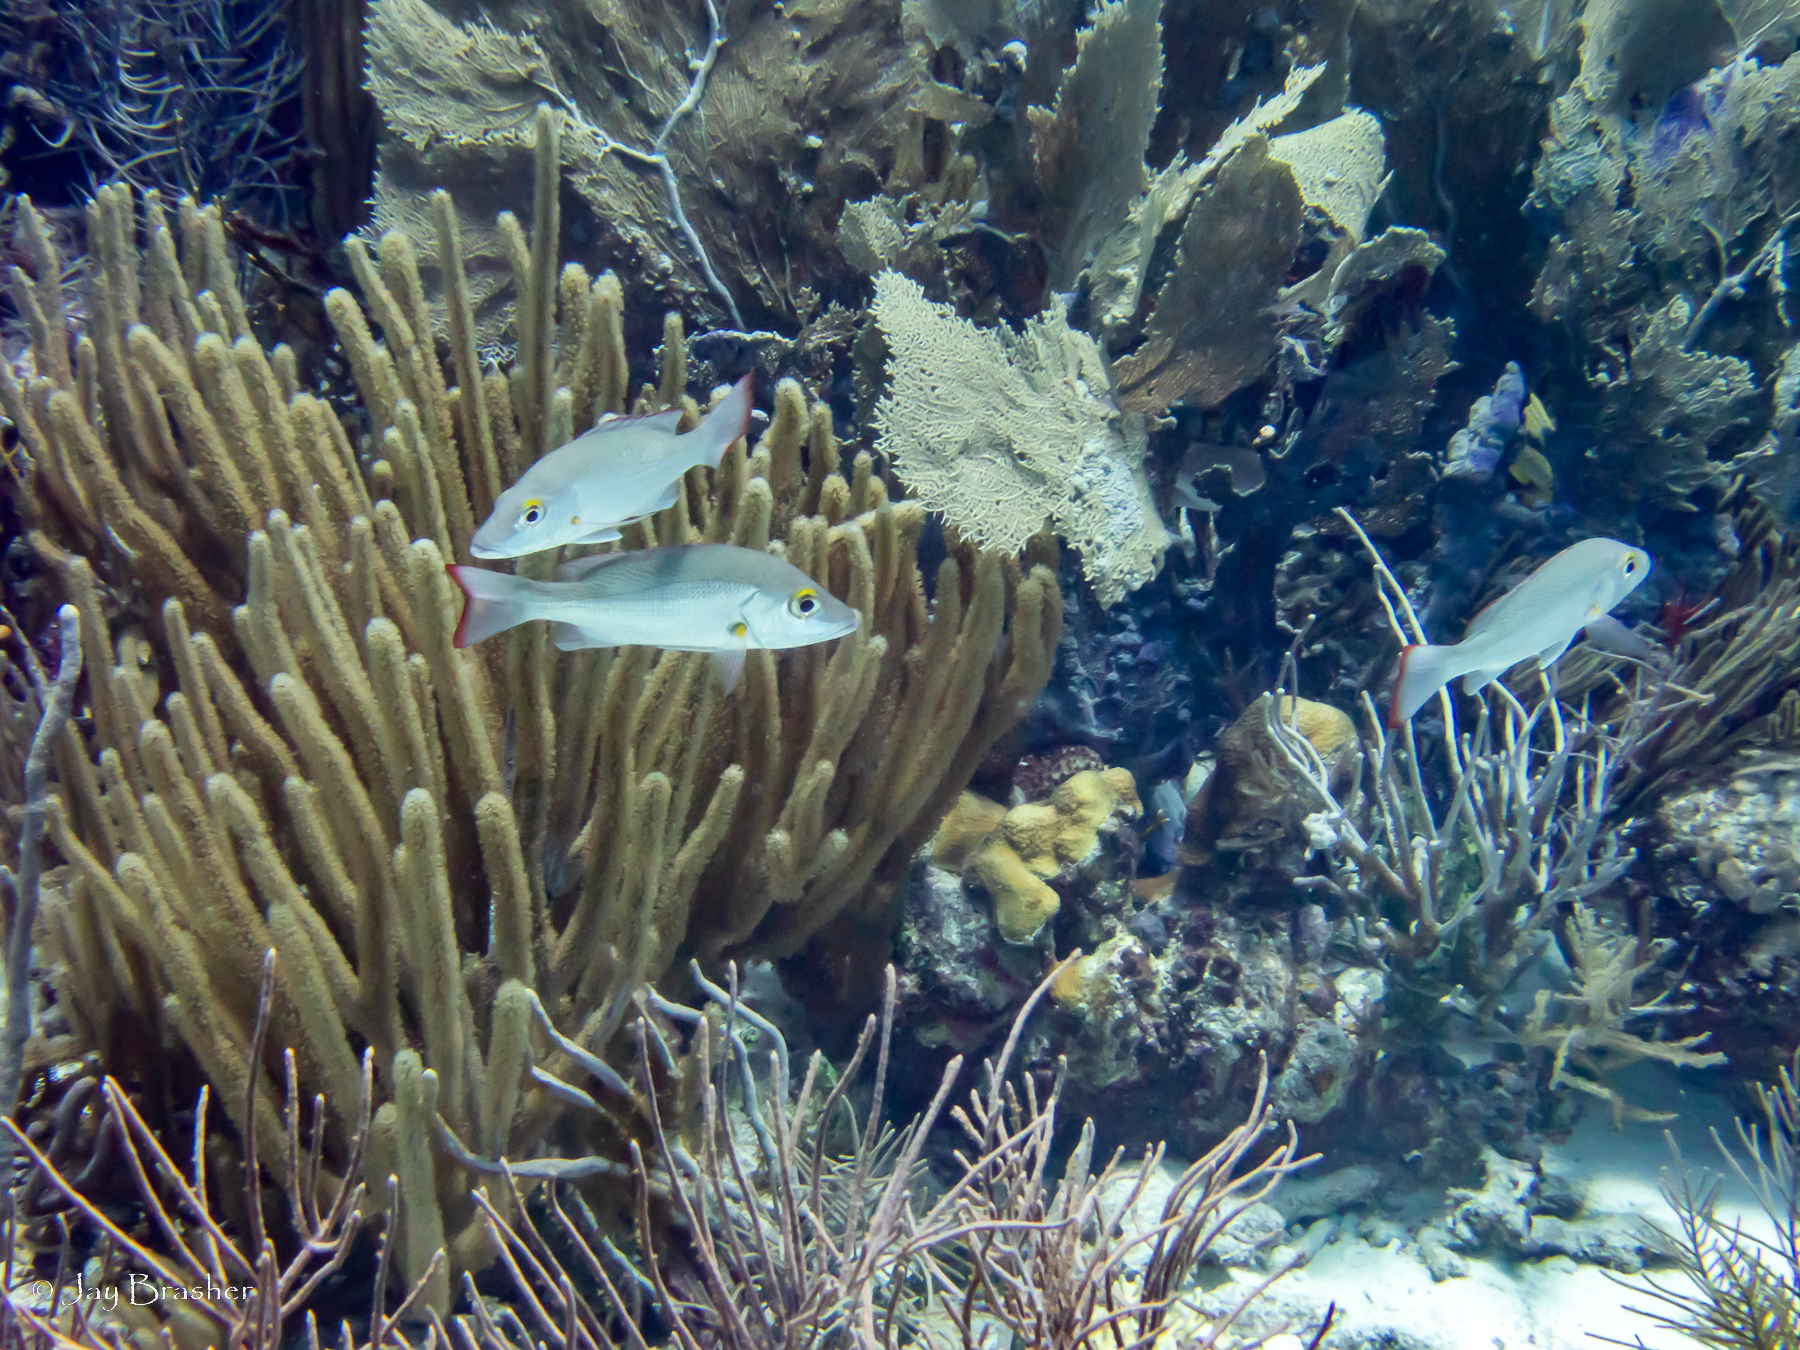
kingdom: Animalia
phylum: Chordata
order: Perciformes
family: Lutjanidae
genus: Lutjanus
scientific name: Lutjanus mahogoni
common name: Spot snapper
